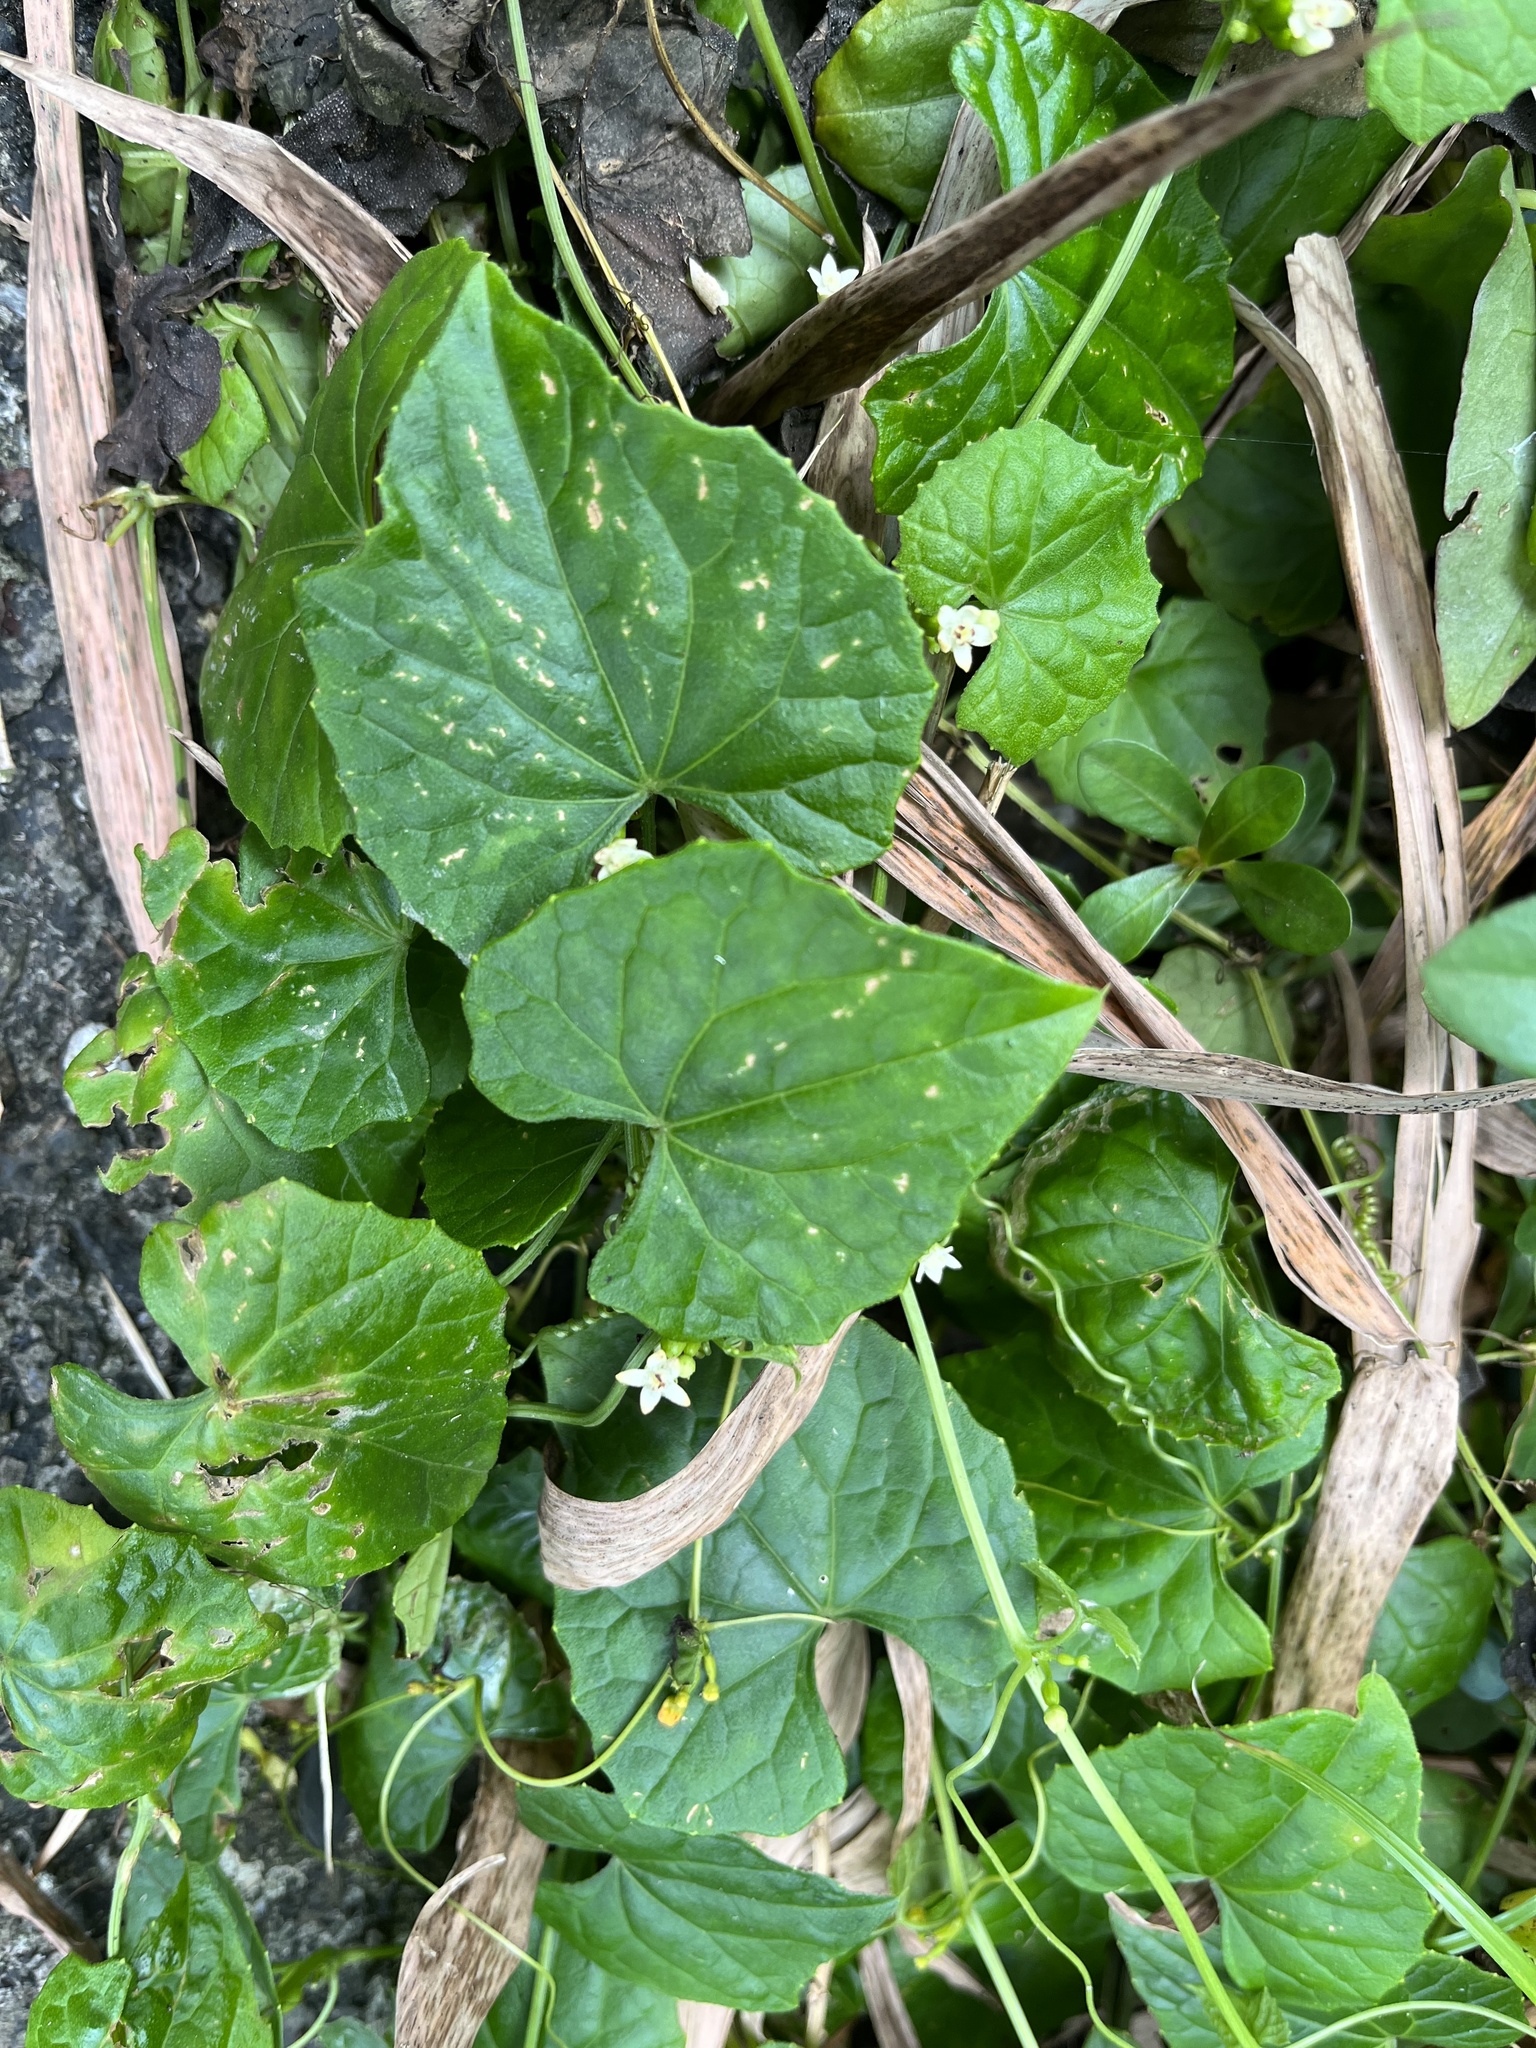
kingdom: Plantae
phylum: Tracheophyta
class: Magnoliopsida
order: Cucurbitales
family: Cucurbitaceae
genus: Zehneria
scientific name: Zehneria guamensis
